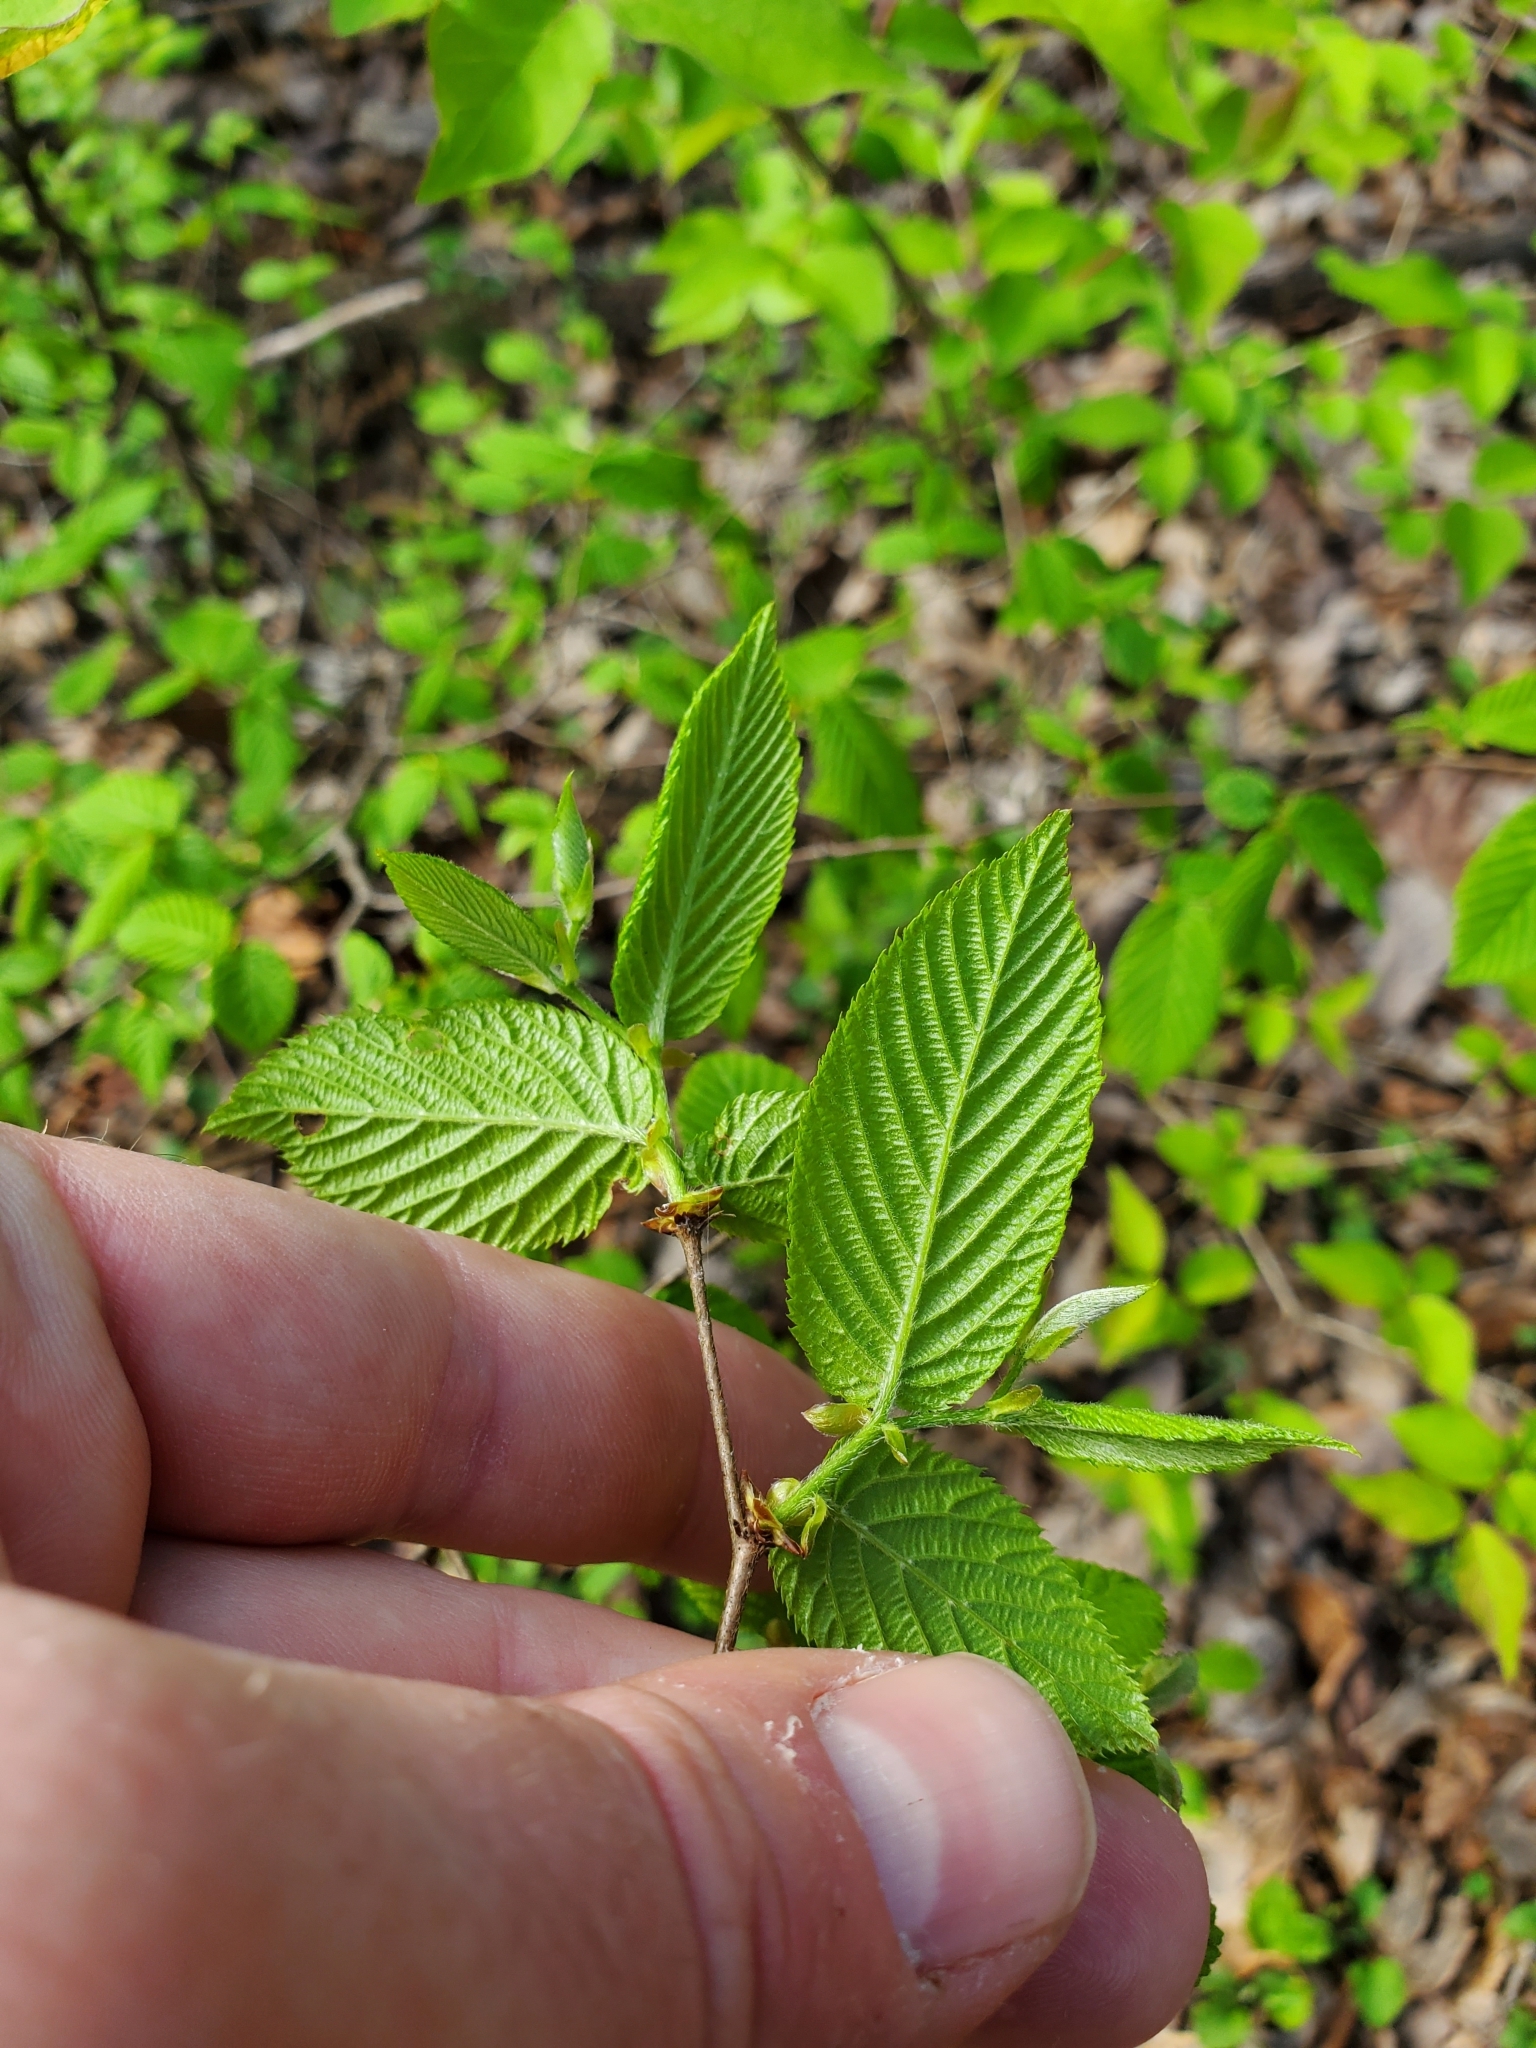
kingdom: Plantae
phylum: Tracheophyta
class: Magnoliopsida
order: Fagales
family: Betulaceae
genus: Carpinus
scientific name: Carpinus caroliniana
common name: American hornbeam
